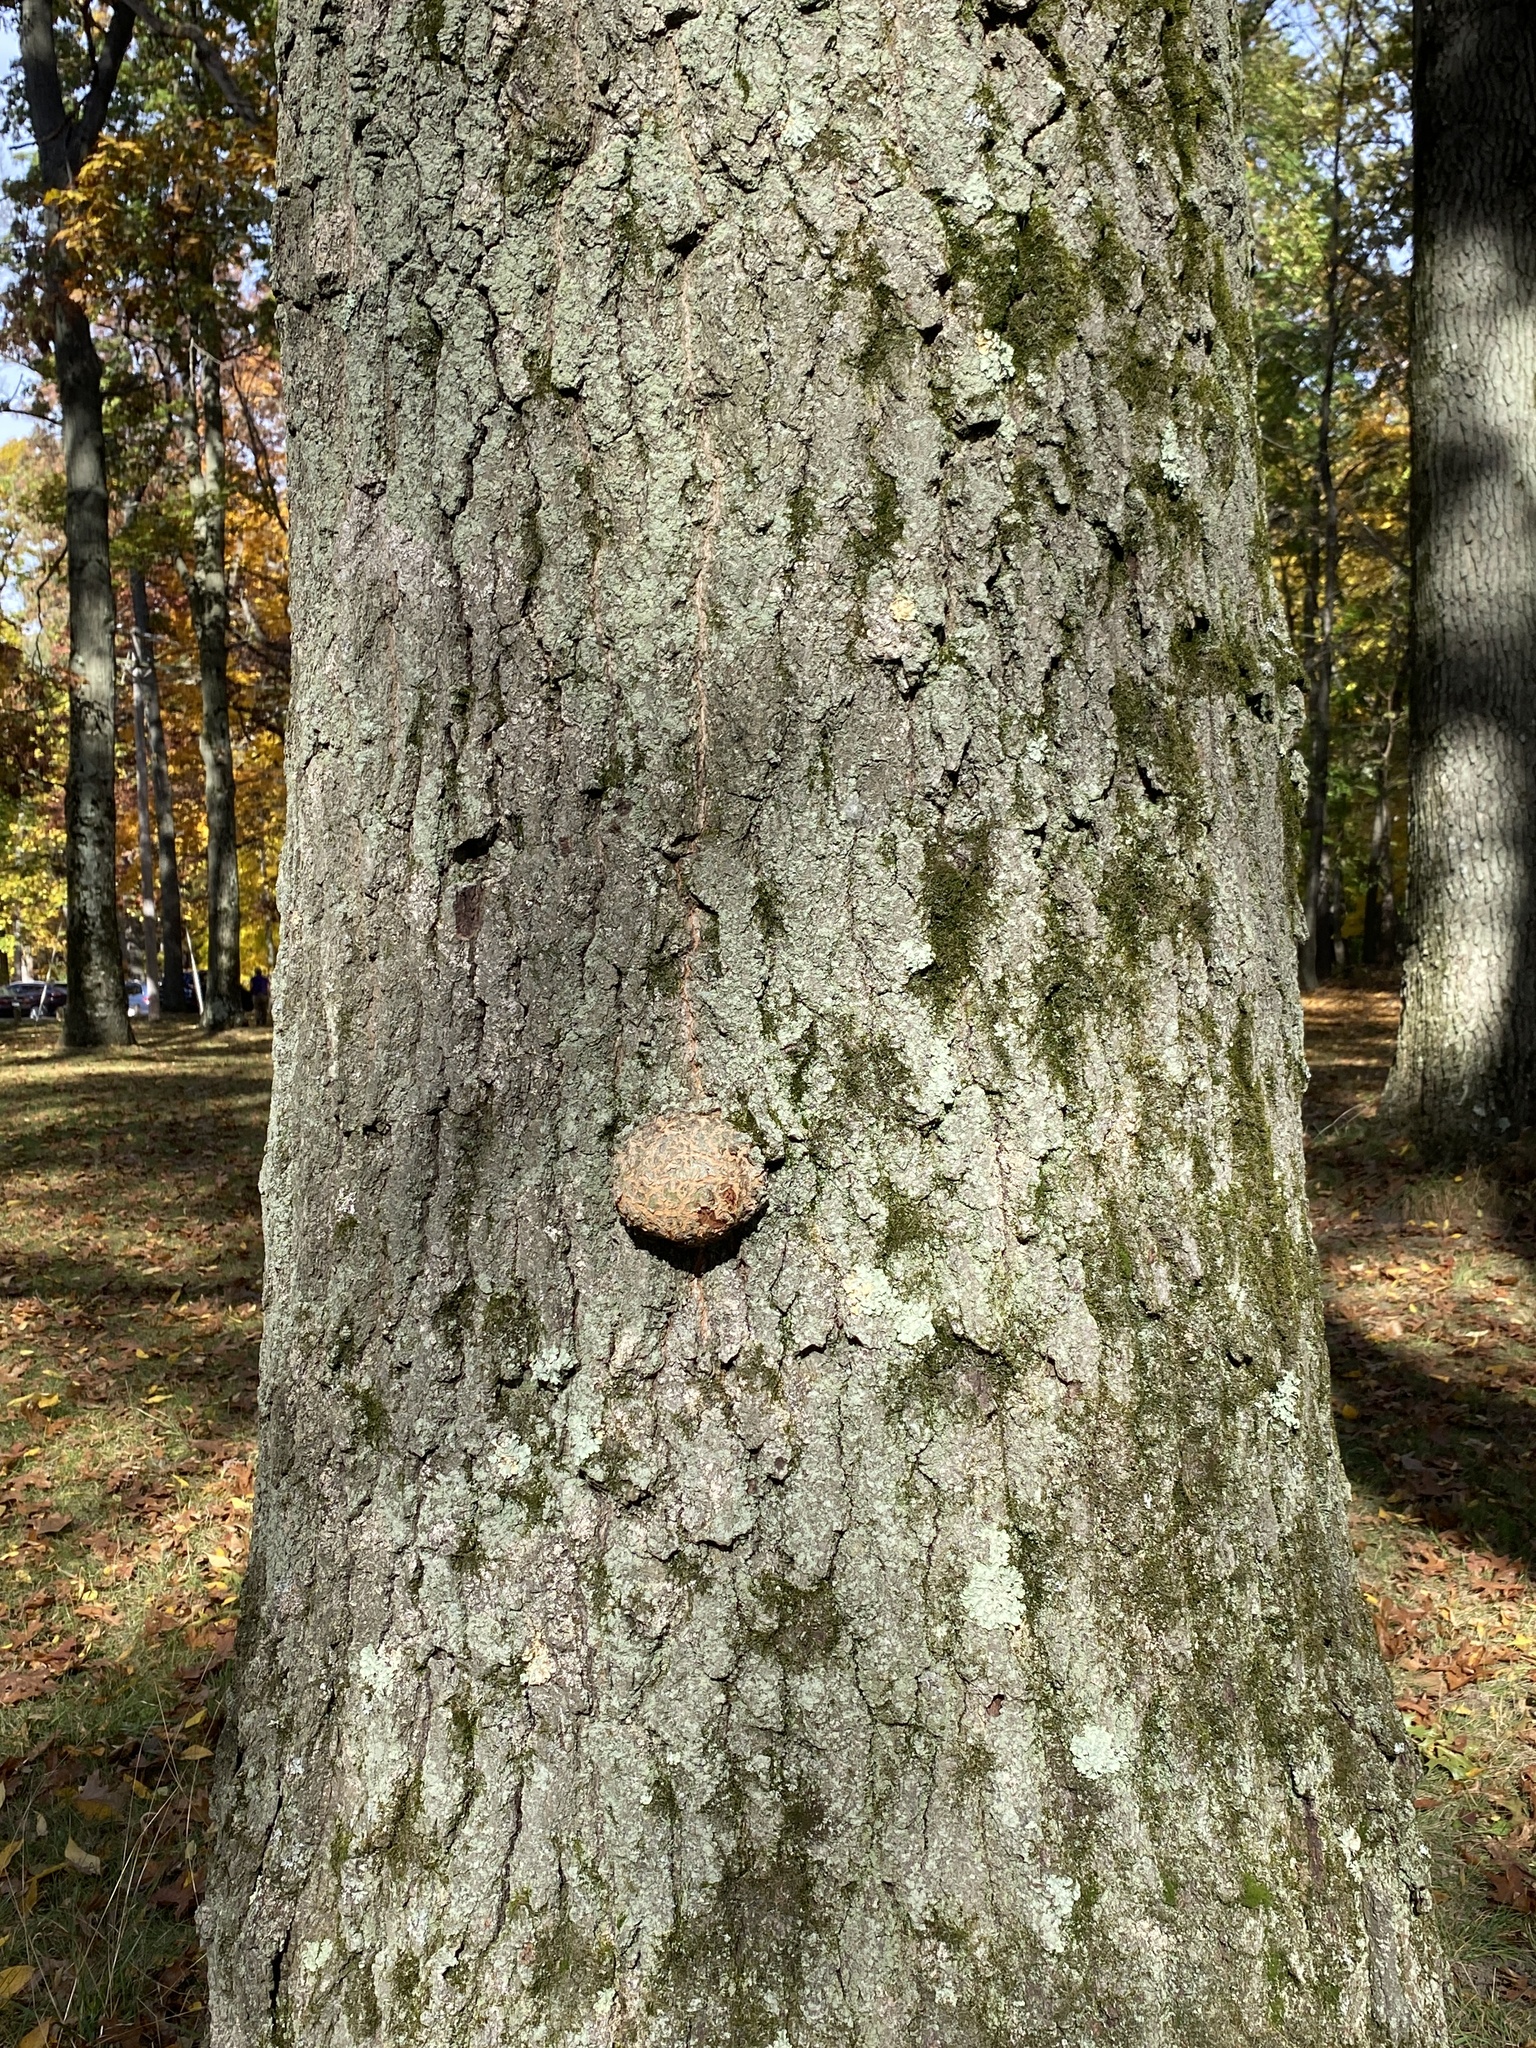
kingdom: Bacteria
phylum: Proteobacteria
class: Alphaproteobacteria
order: Rhizobiales
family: Rhizobiaceae
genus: Rhizobium
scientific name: Rhizobium Agrobacterium radiobacter
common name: Bacterial crown gall
